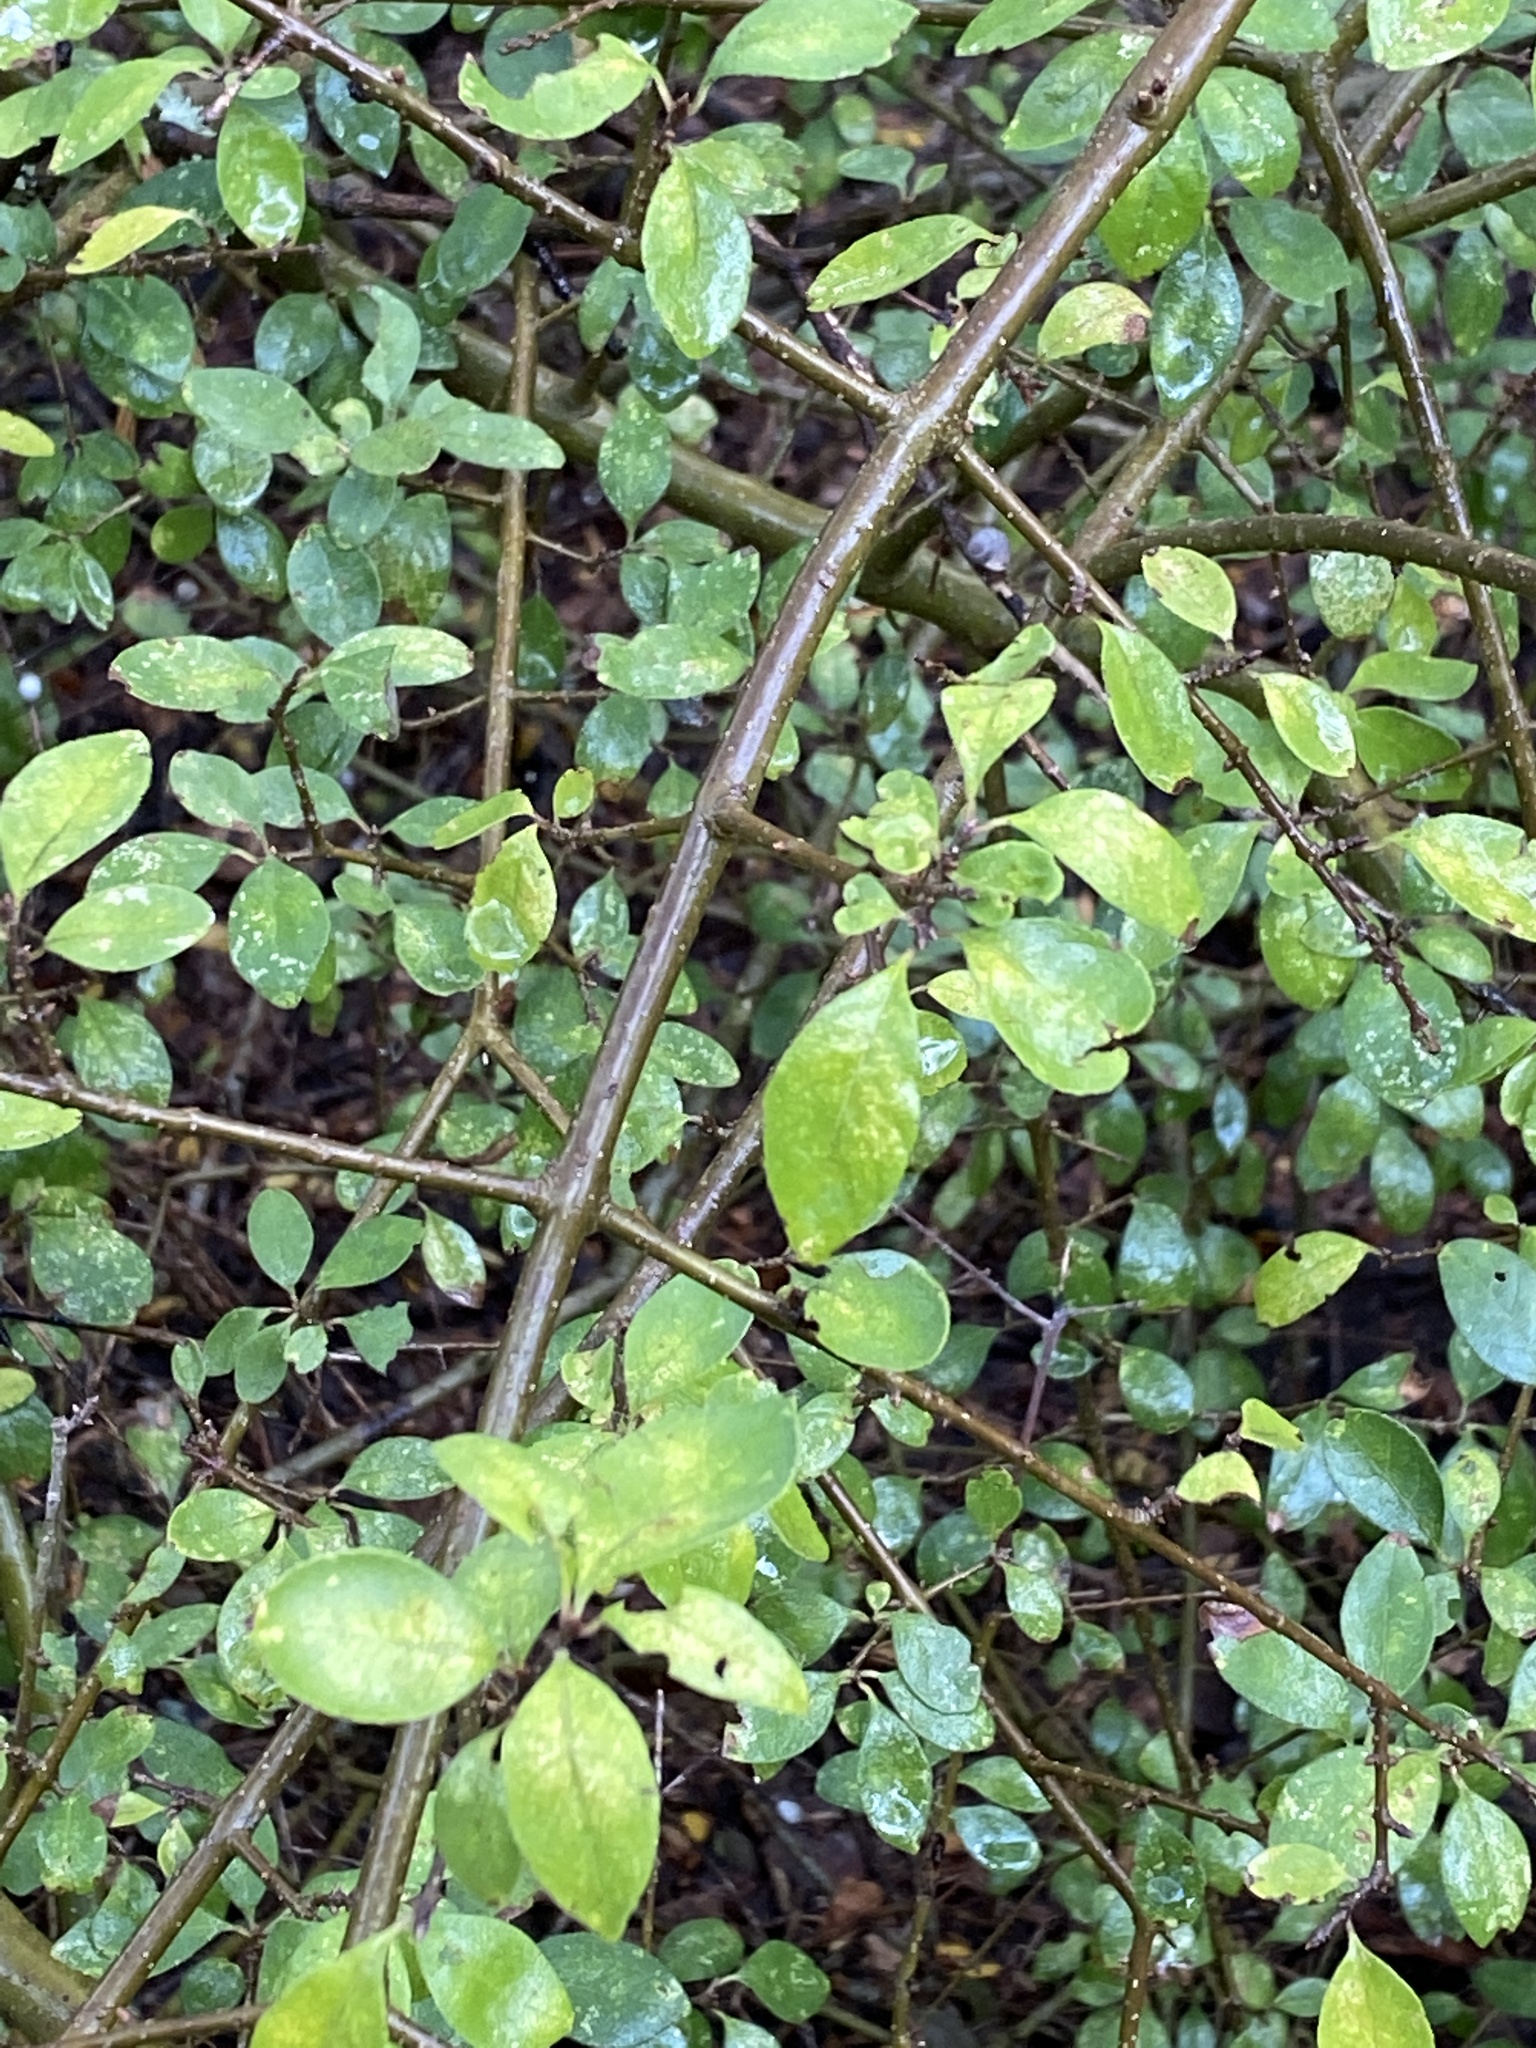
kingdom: Plantae
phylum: Tracheophyta
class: Magnoliopsida
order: Lamiales
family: Oleaceae
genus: Forestiera
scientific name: Forestiera pubescens
